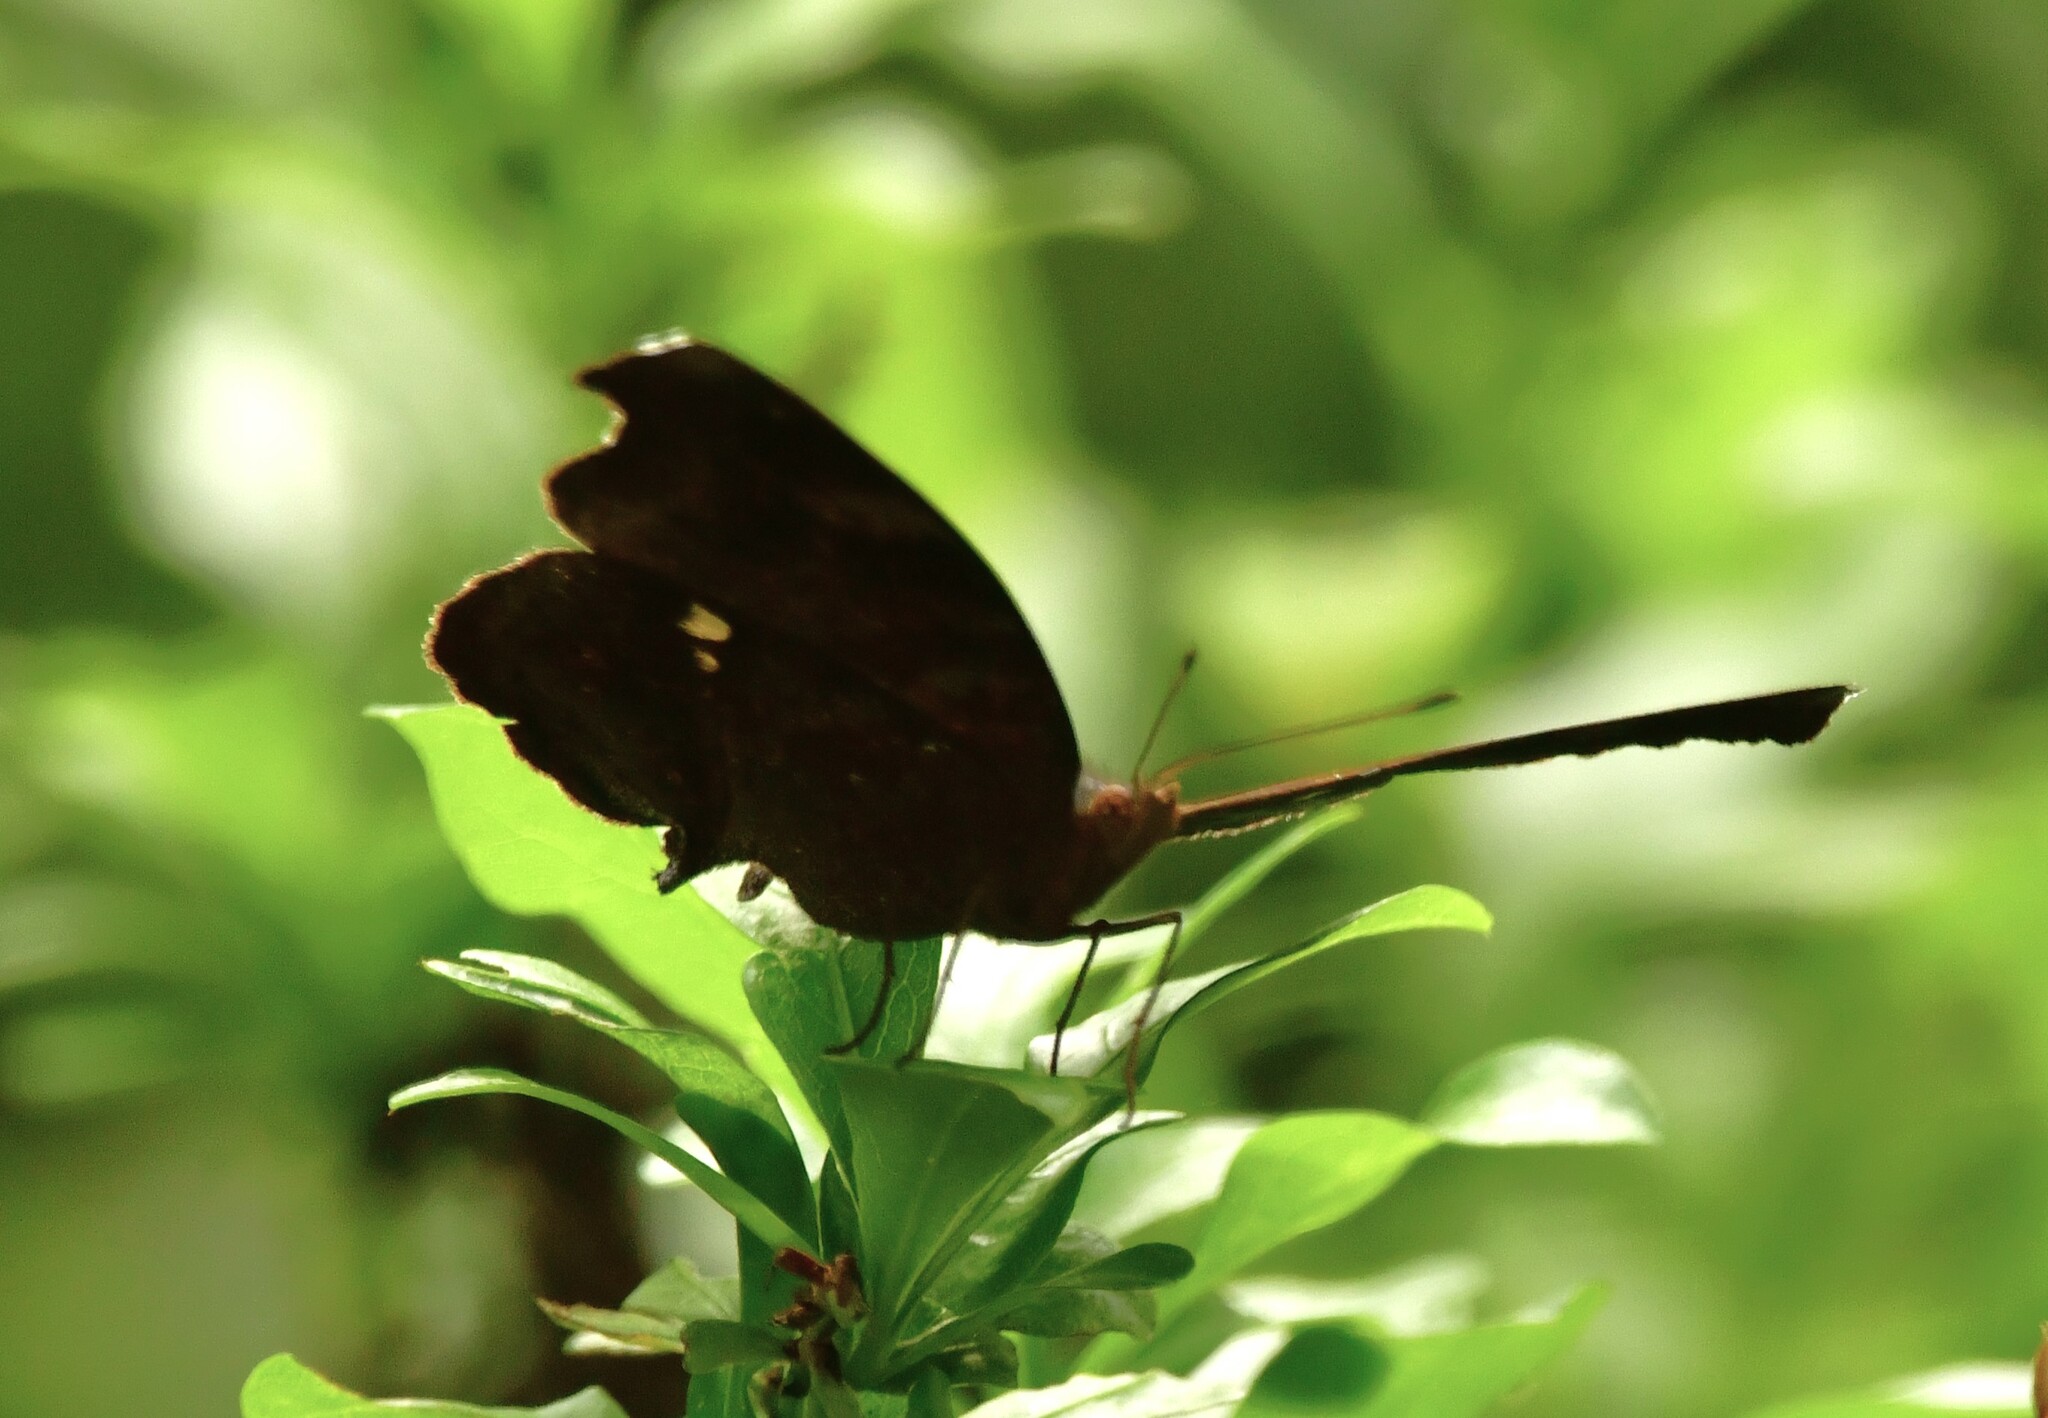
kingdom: Animalia
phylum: Arthropoda
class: Insecta
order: Lepidoptera
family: Nymphalidae
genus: Junonia
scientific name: Junonia iphita
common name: Chocolate pansy
